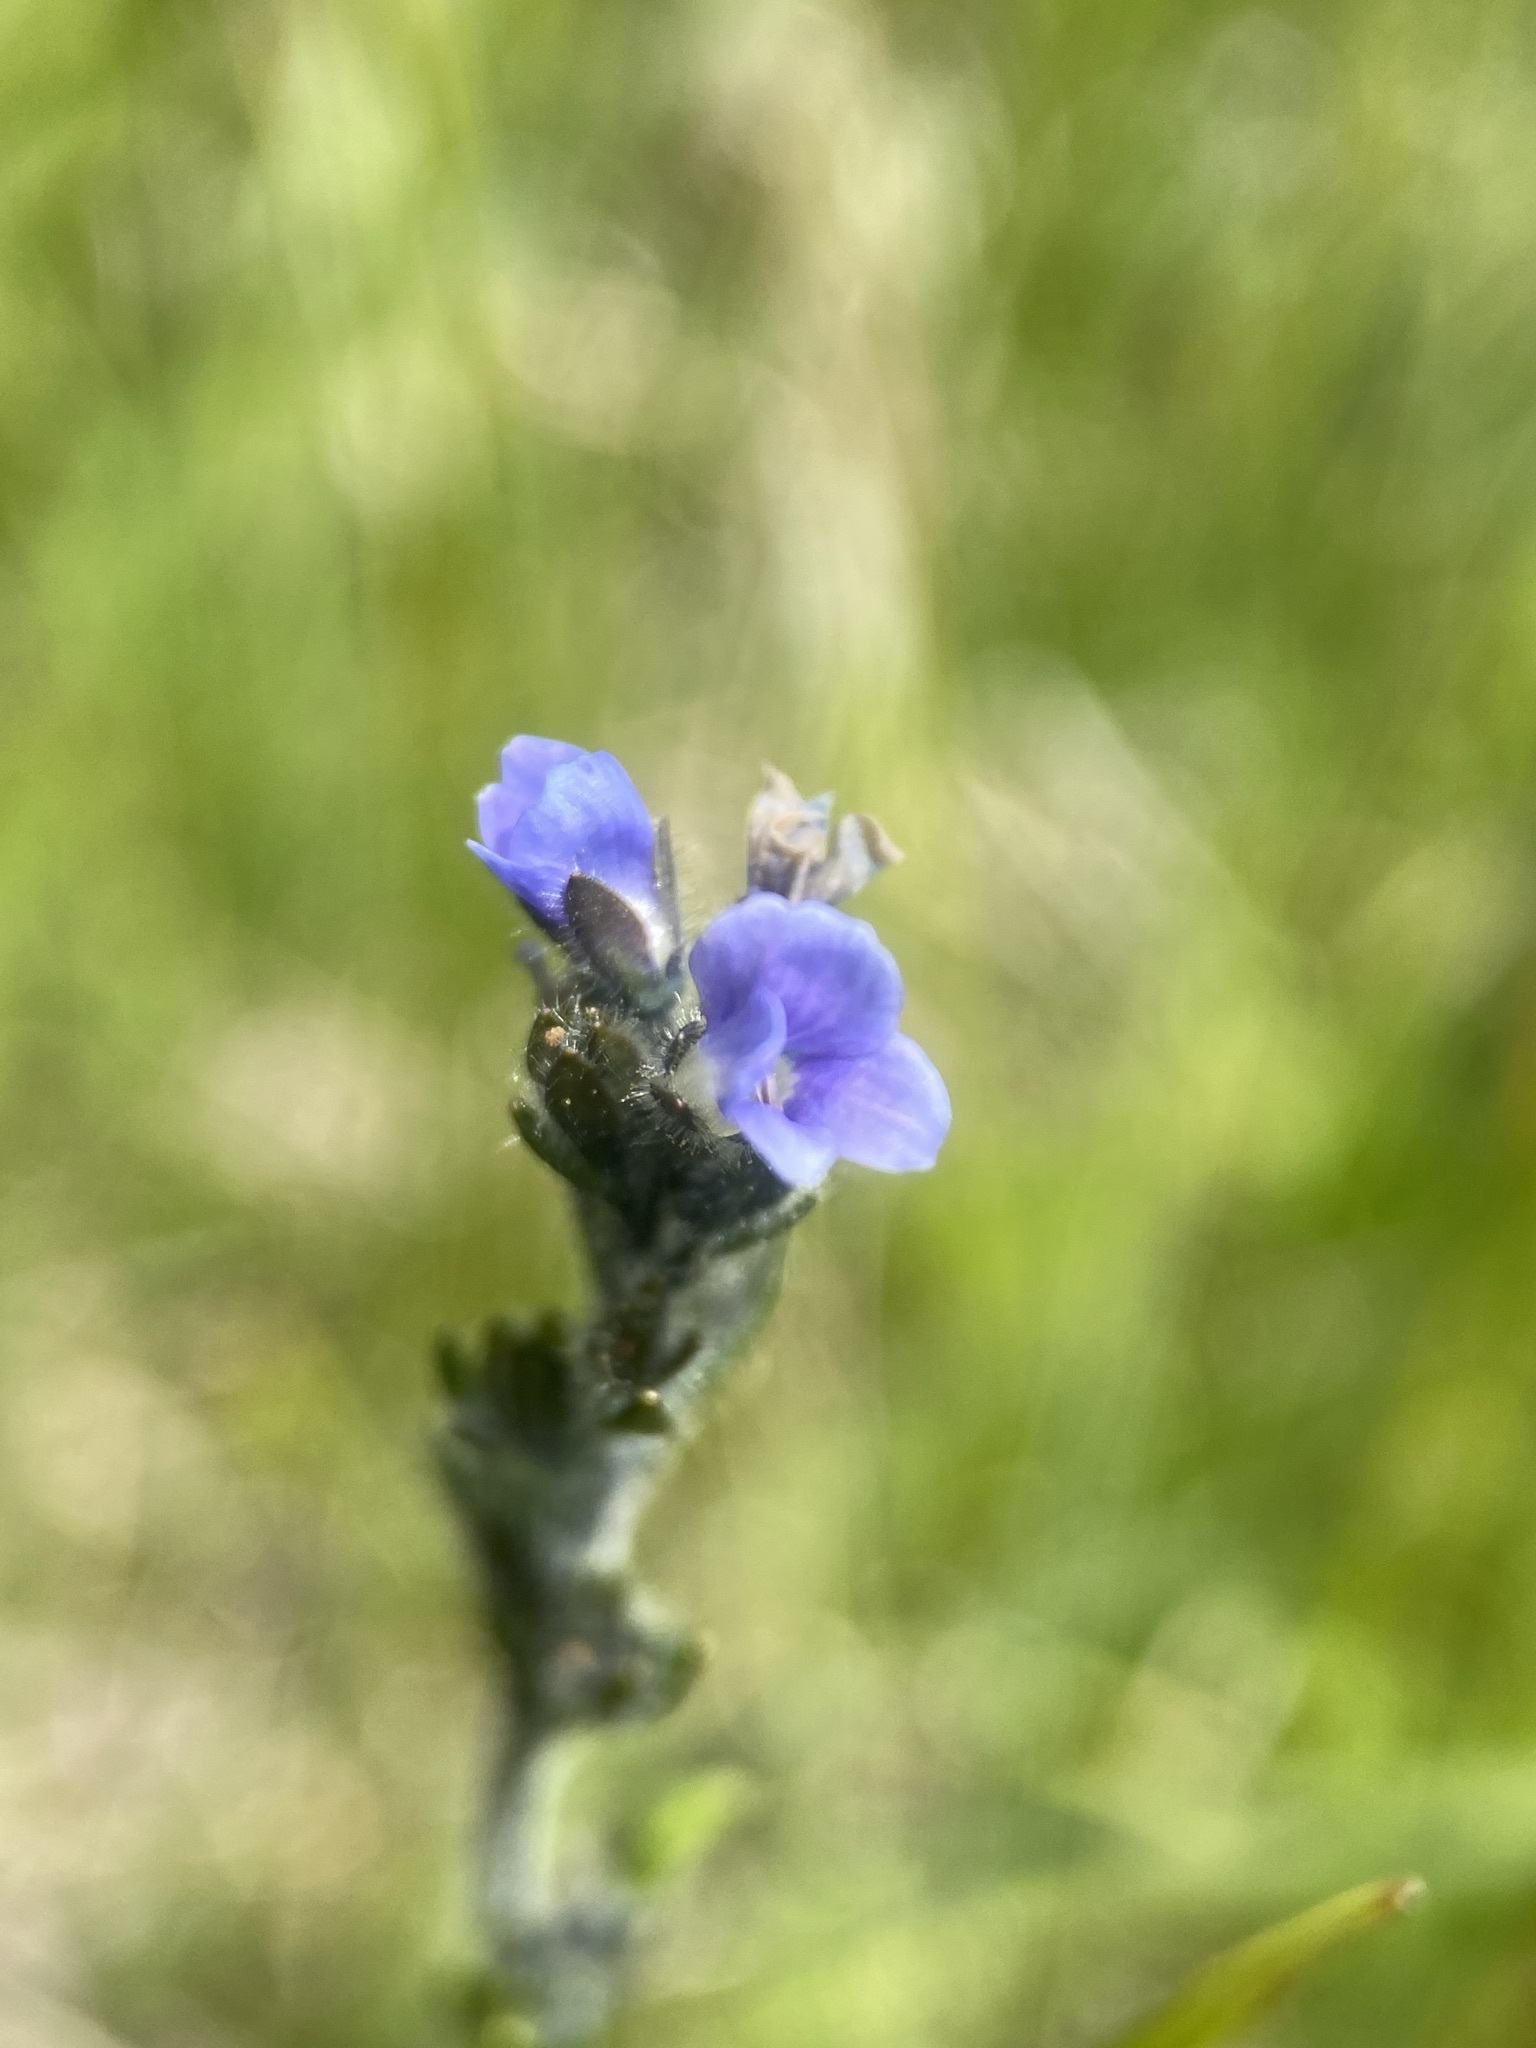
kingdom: Plantae
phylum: Tracheophyta
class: Magnoliopsida
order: Lamiales
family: Plantaginaceae
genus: Veronica
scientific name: Veronica wormskjoldii
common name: American alpine speedwell
